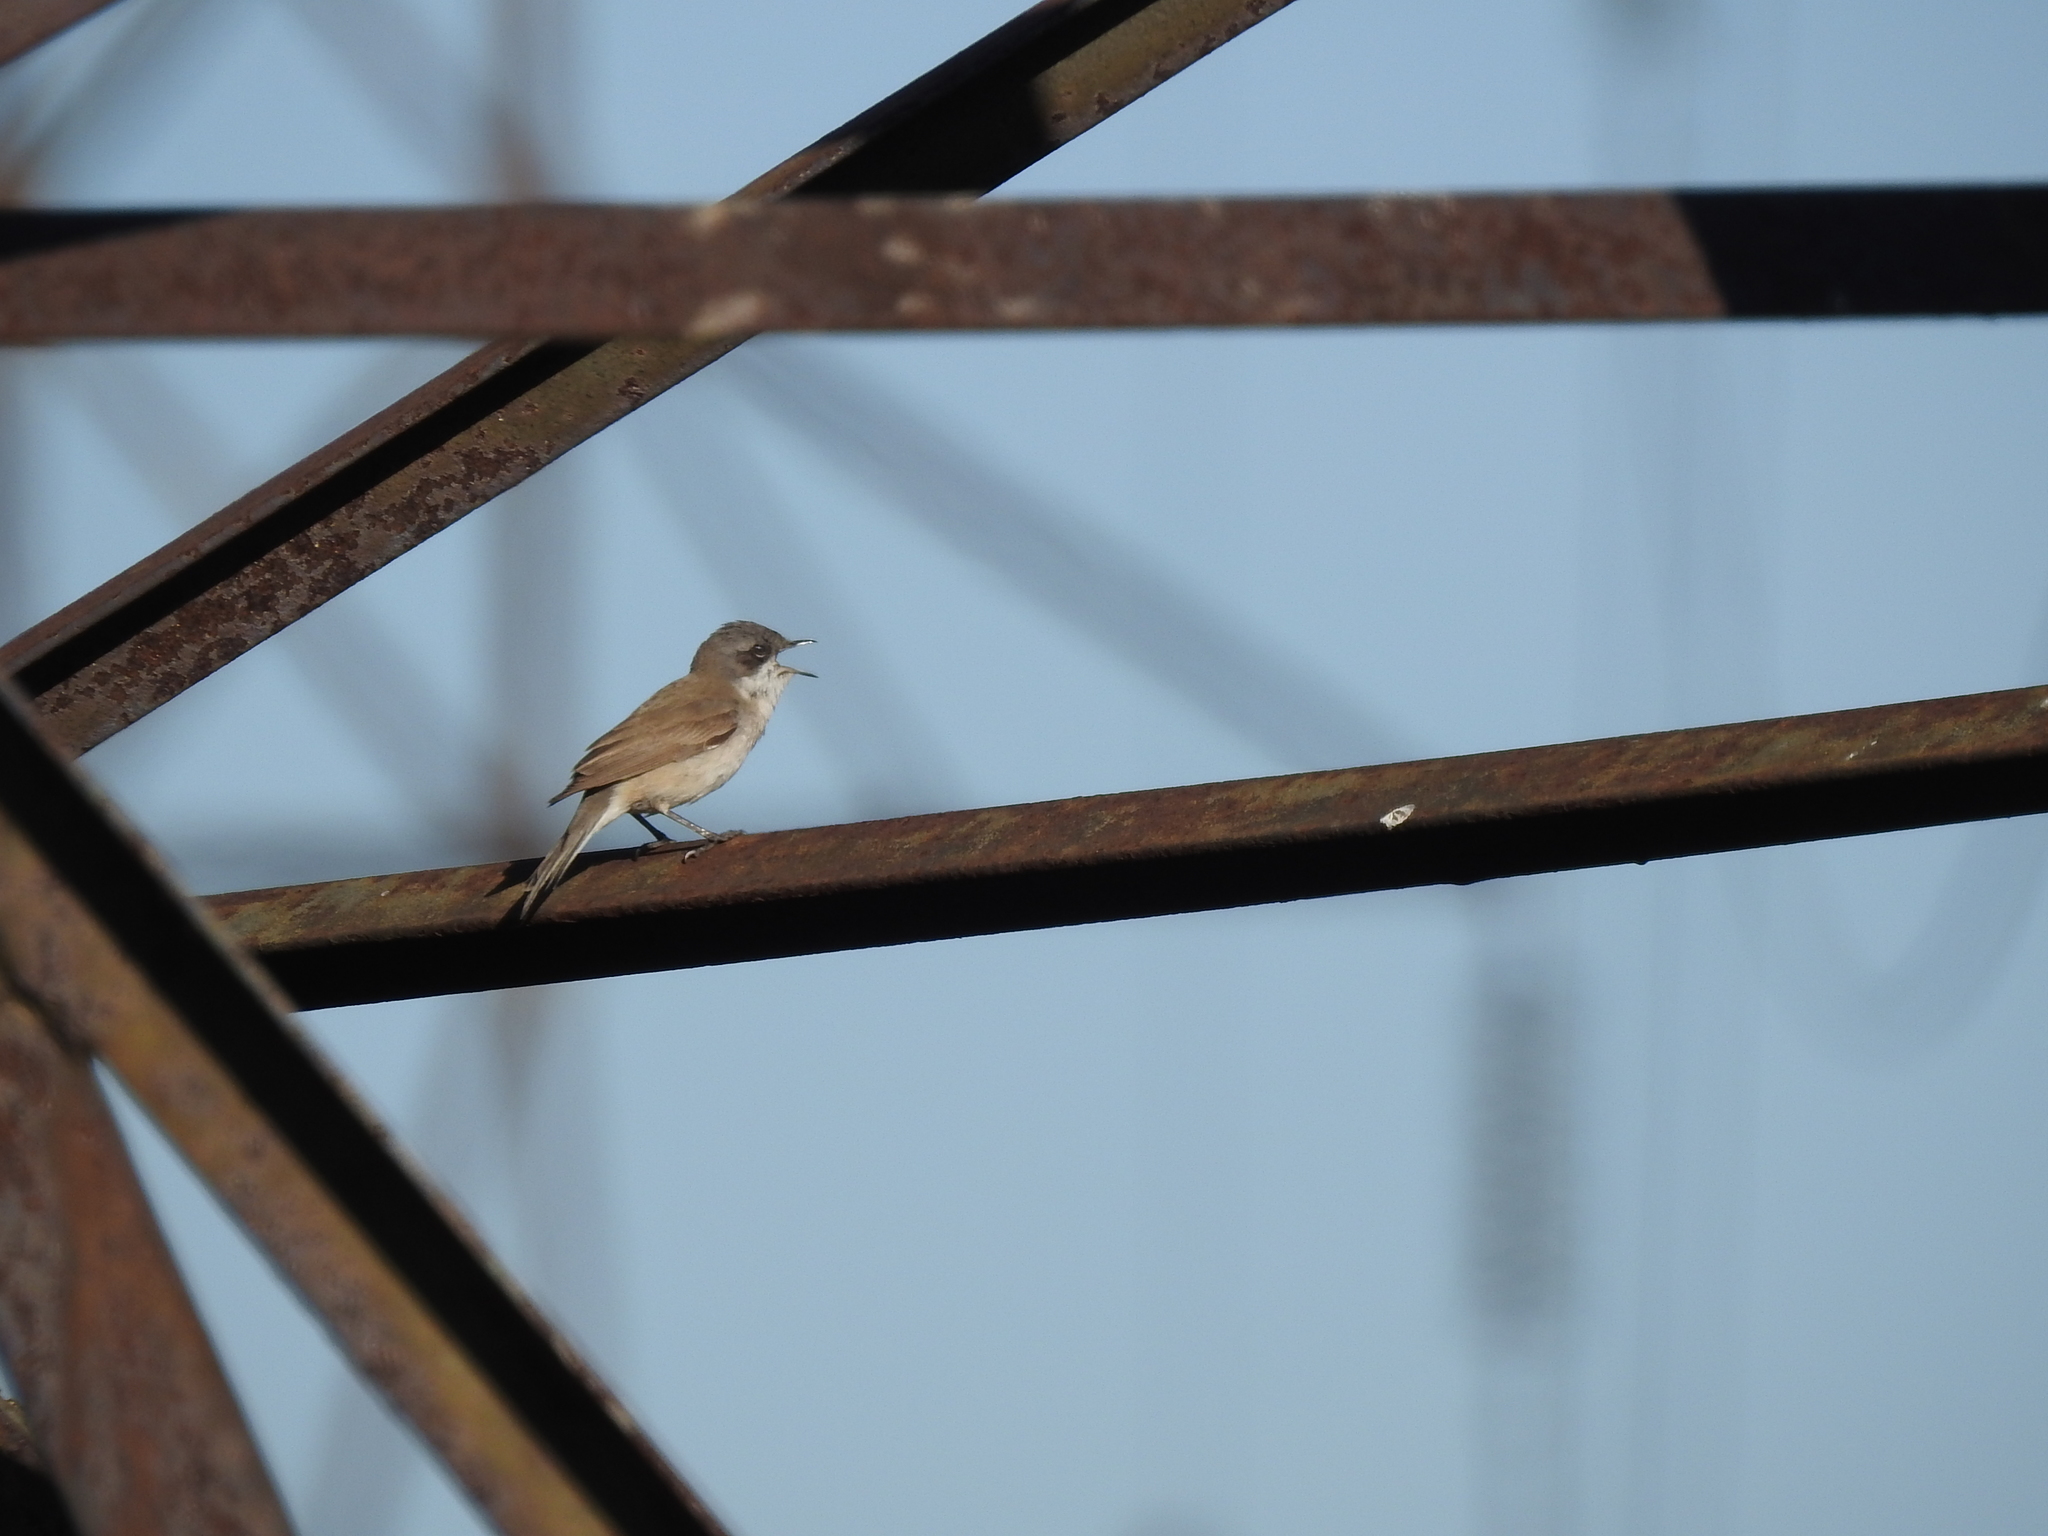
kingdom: Animalia
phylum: Chordata
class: Aves
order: Passeriformes
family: Sylviidae
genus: Sylvia
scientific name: Sylvia curruca
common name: Lesser whitethroat
